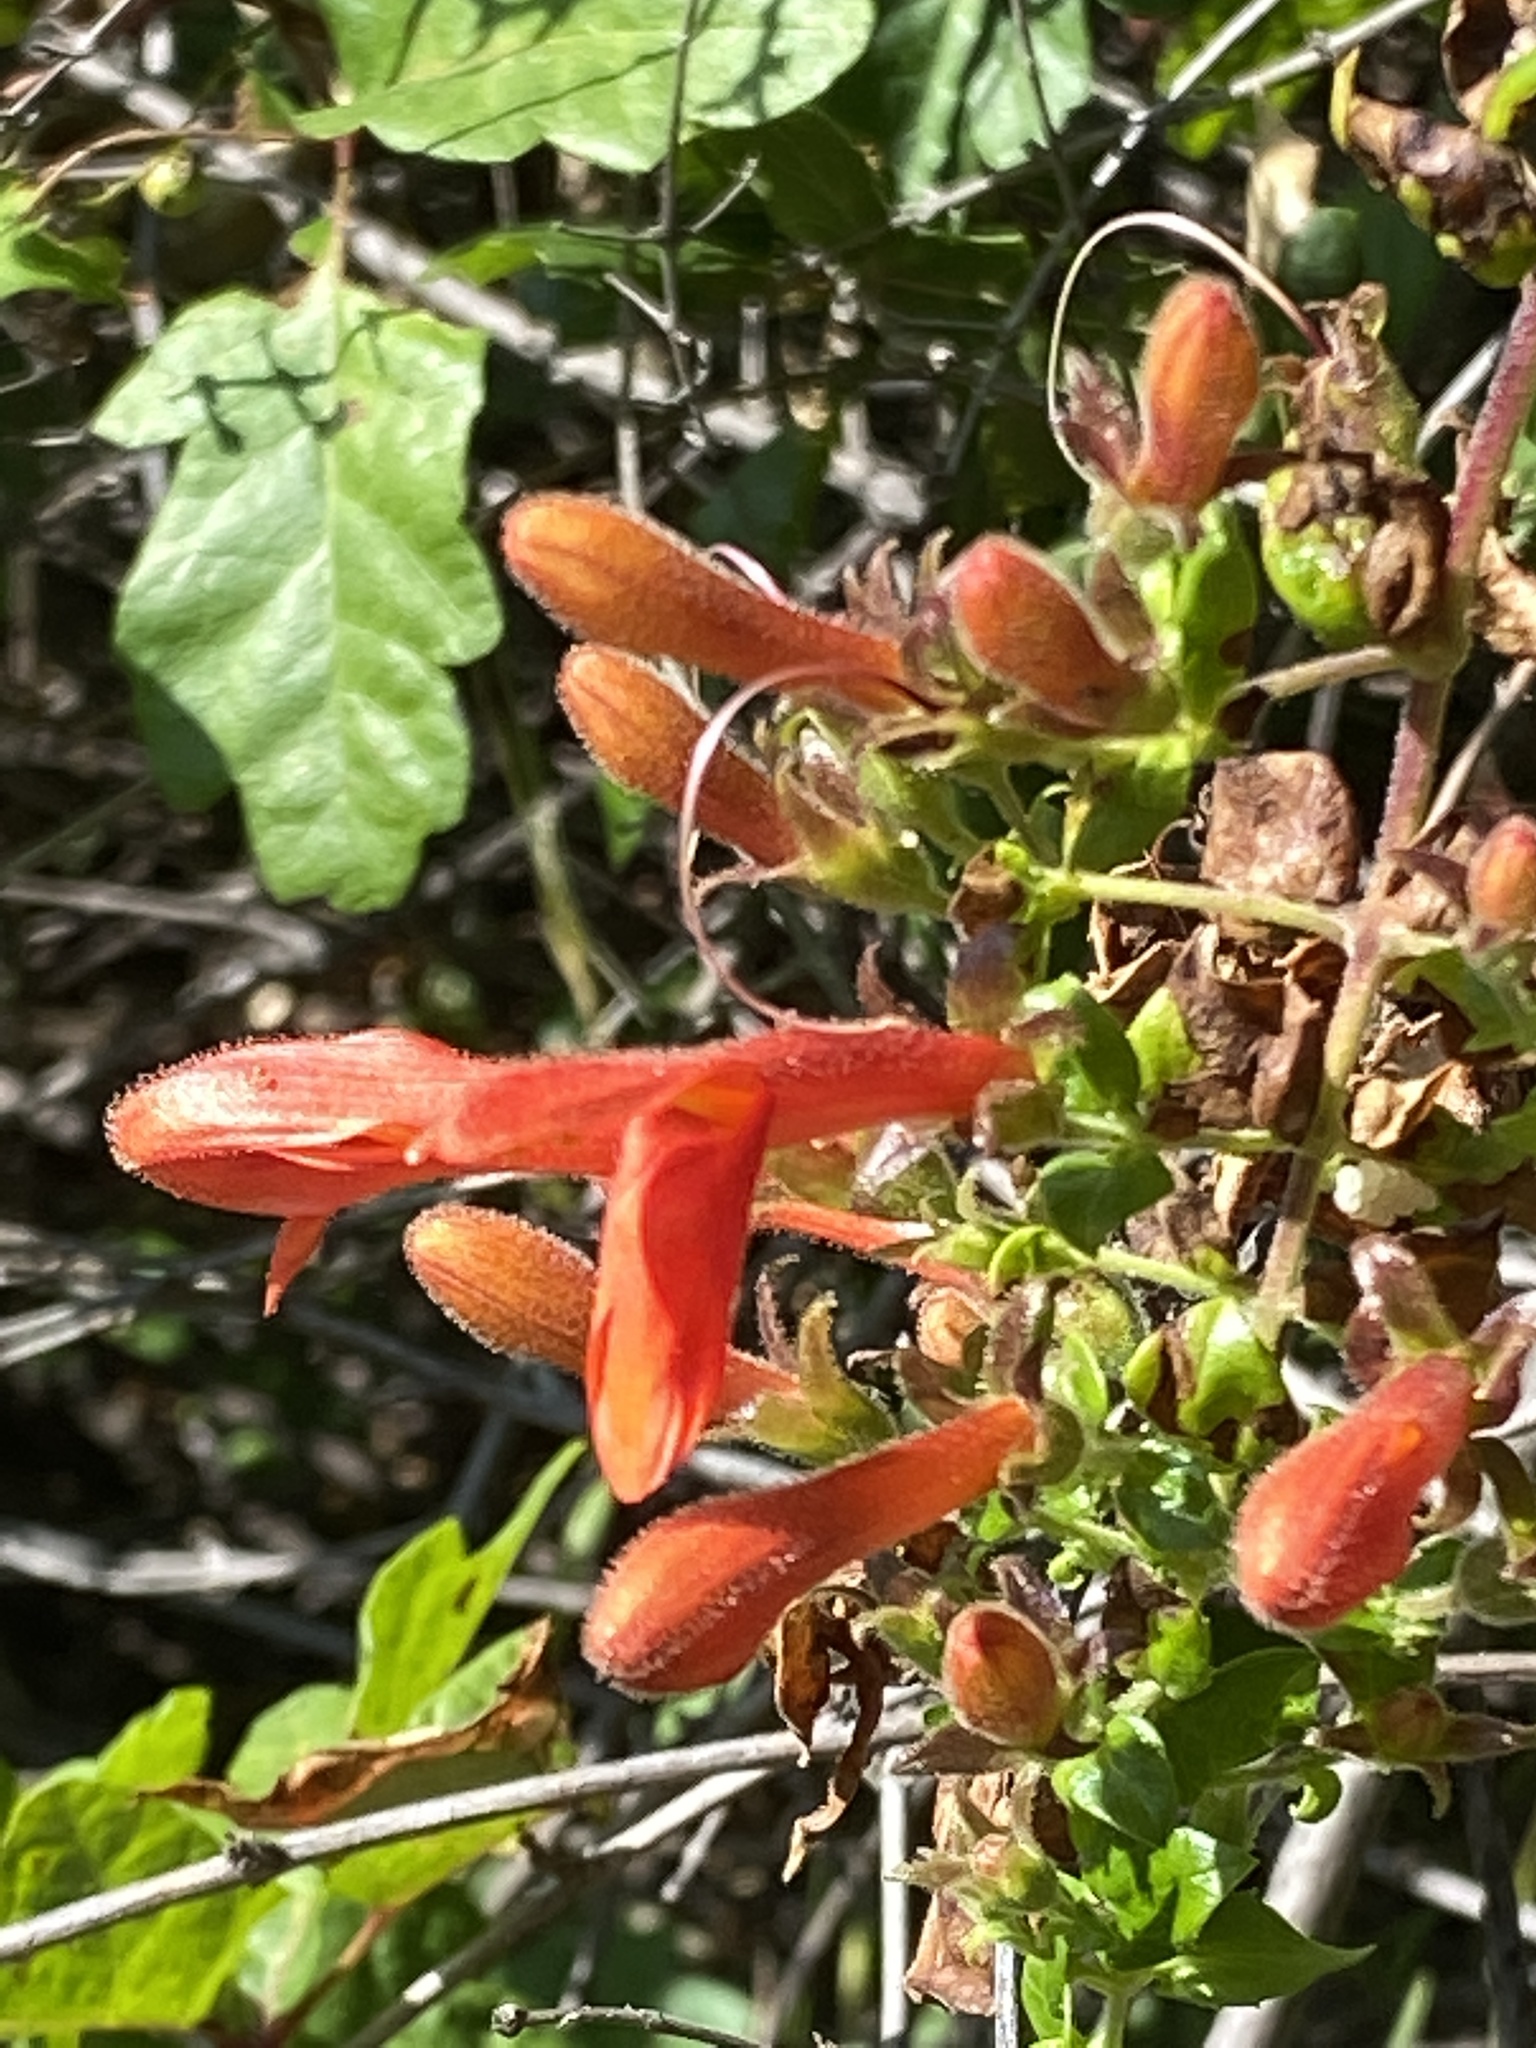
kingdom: Plantae
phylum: Tracheophyta
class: Magnoliopsida
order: Lamiales
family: Plantaginaceae
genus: Keckiella
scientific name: Keckiella cordifolia
